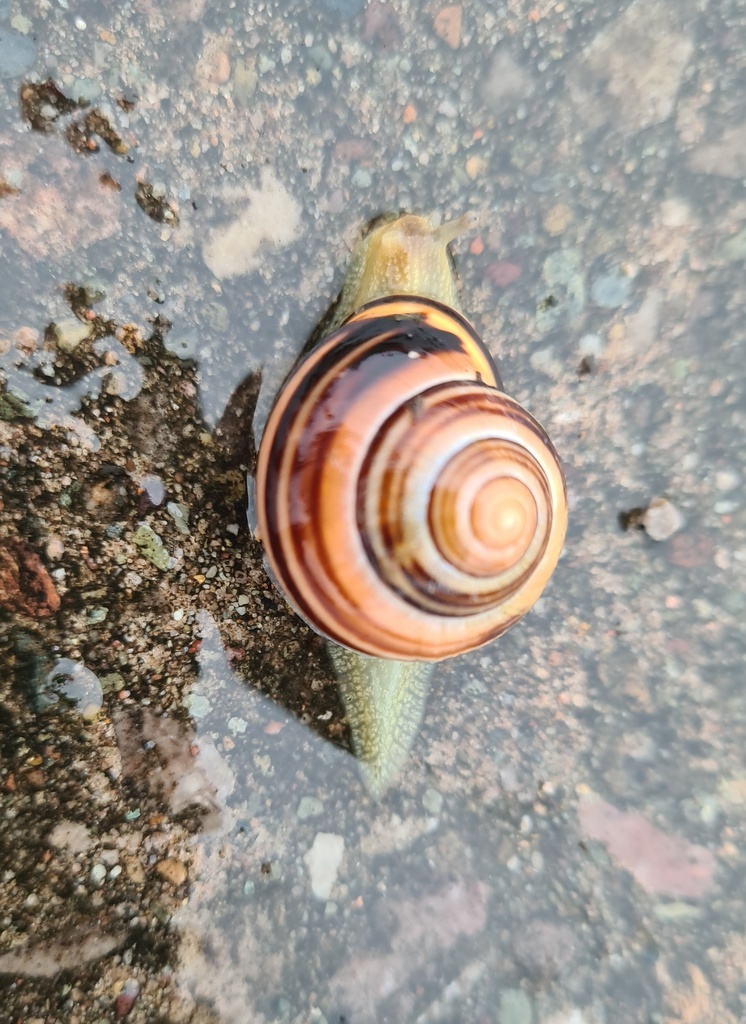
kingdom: Animalia
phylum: Mollusca
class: Gastropoda
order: Stylommatophora
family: Helicidae
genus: Cepaea
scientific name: Cepaea nemoralis
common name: Grovesnail
